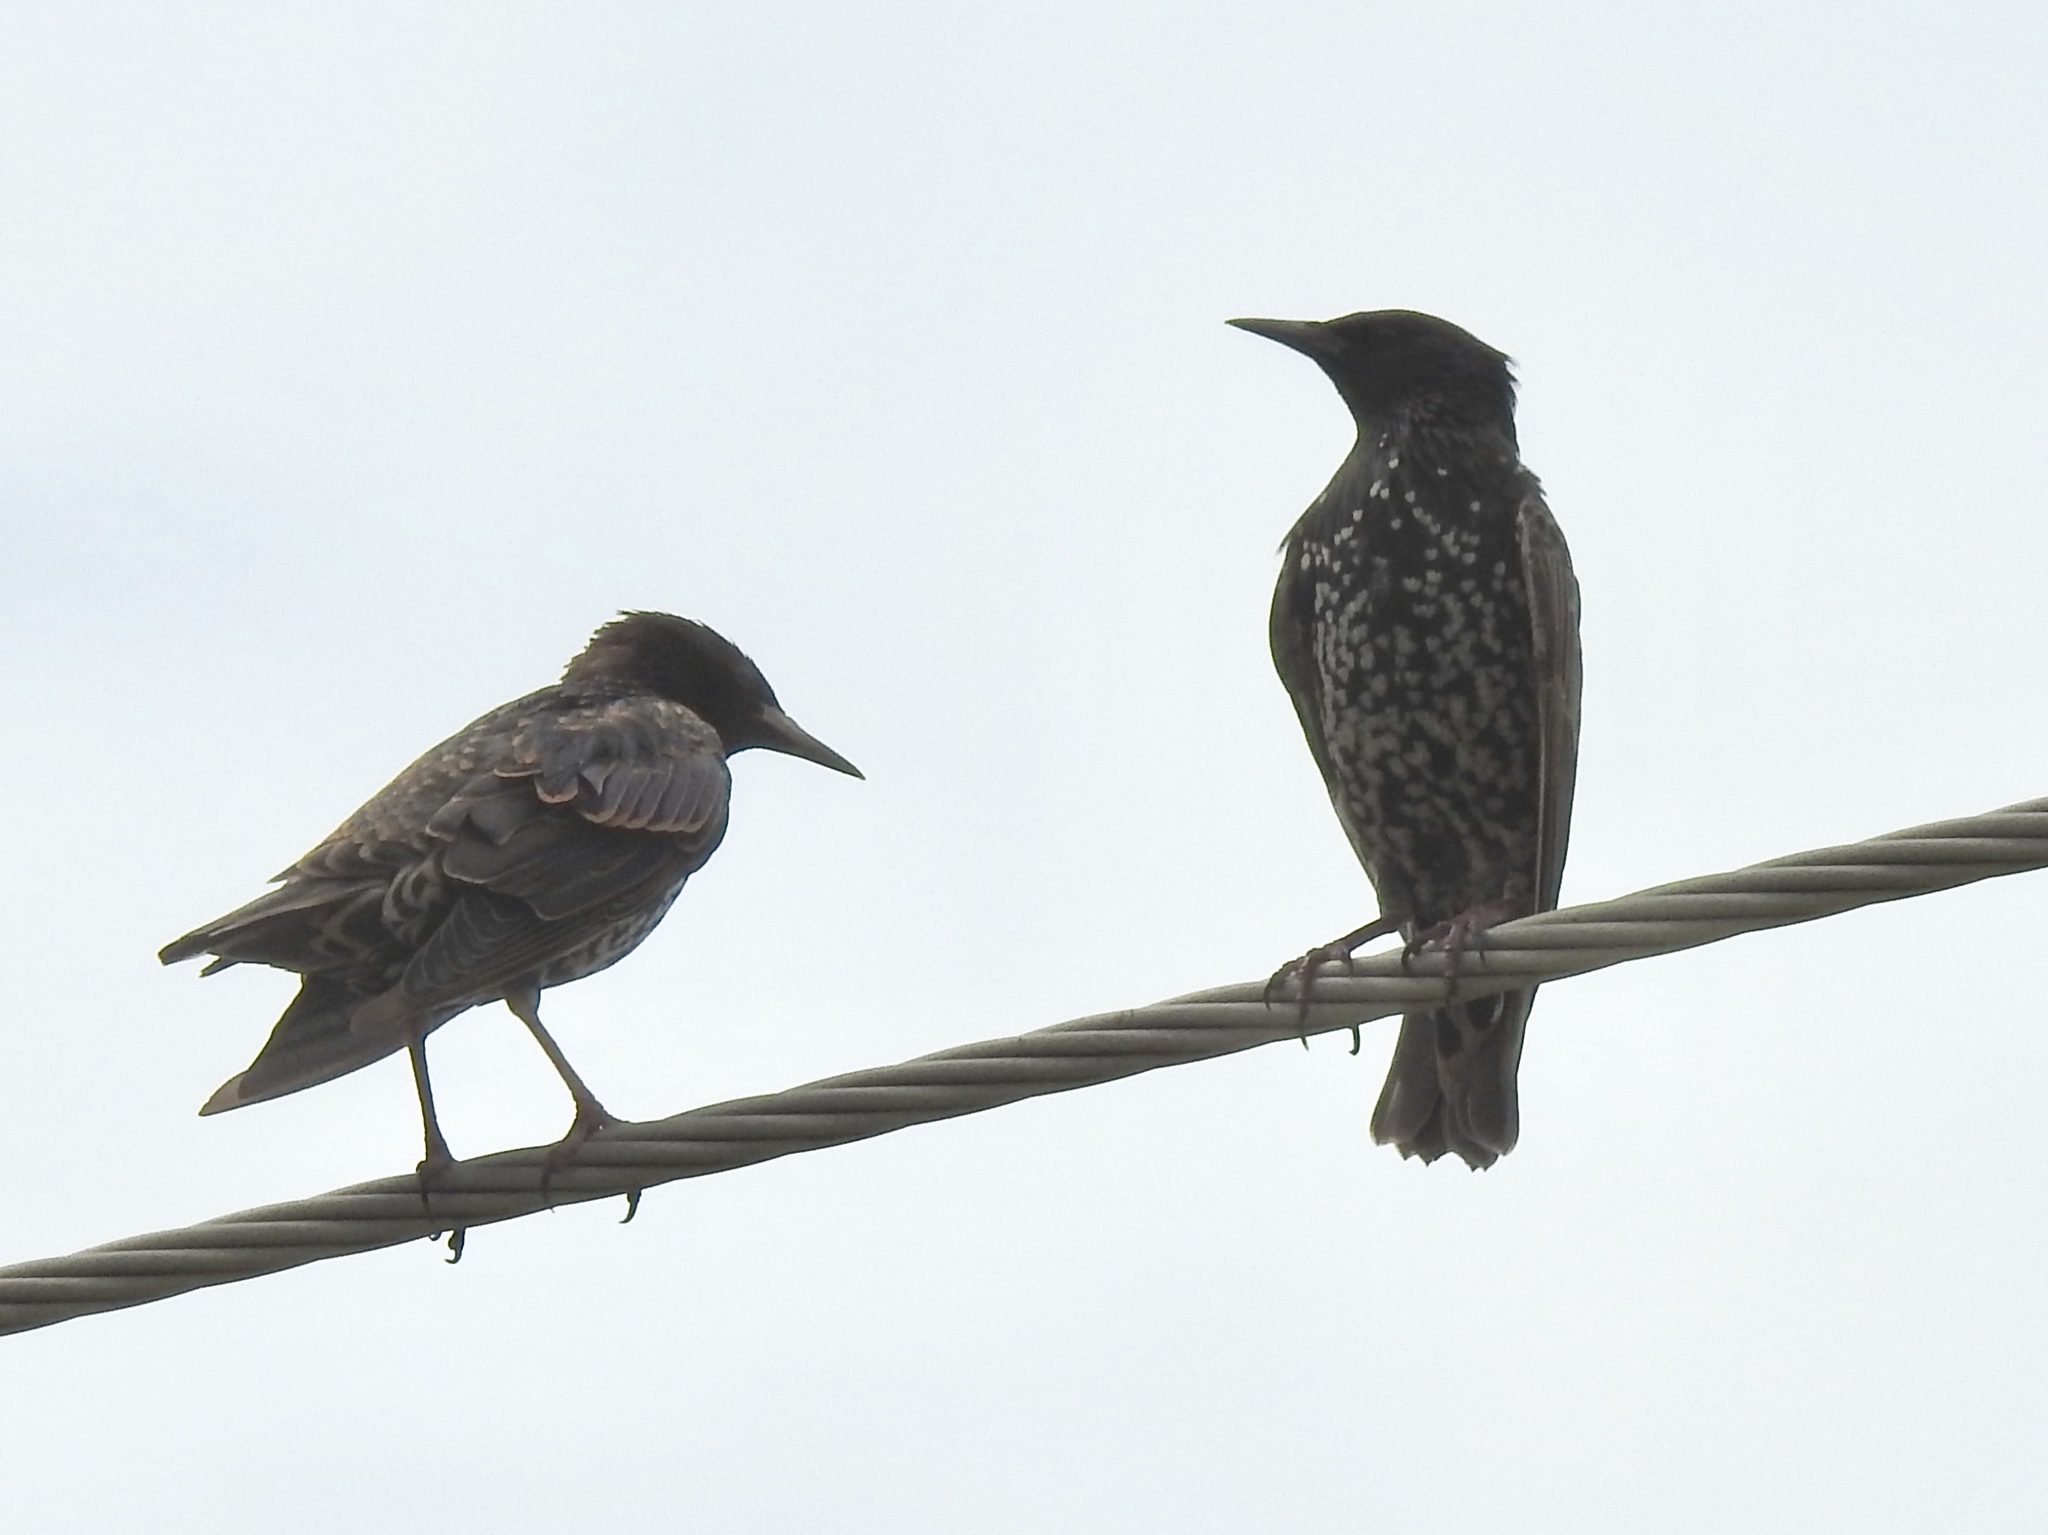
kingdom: Animalia
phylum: Chordata
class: Aves
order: Passeriformes
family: Sturnidae
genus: Sturnus
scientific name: Sturnus vulgaris
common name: Common starling
